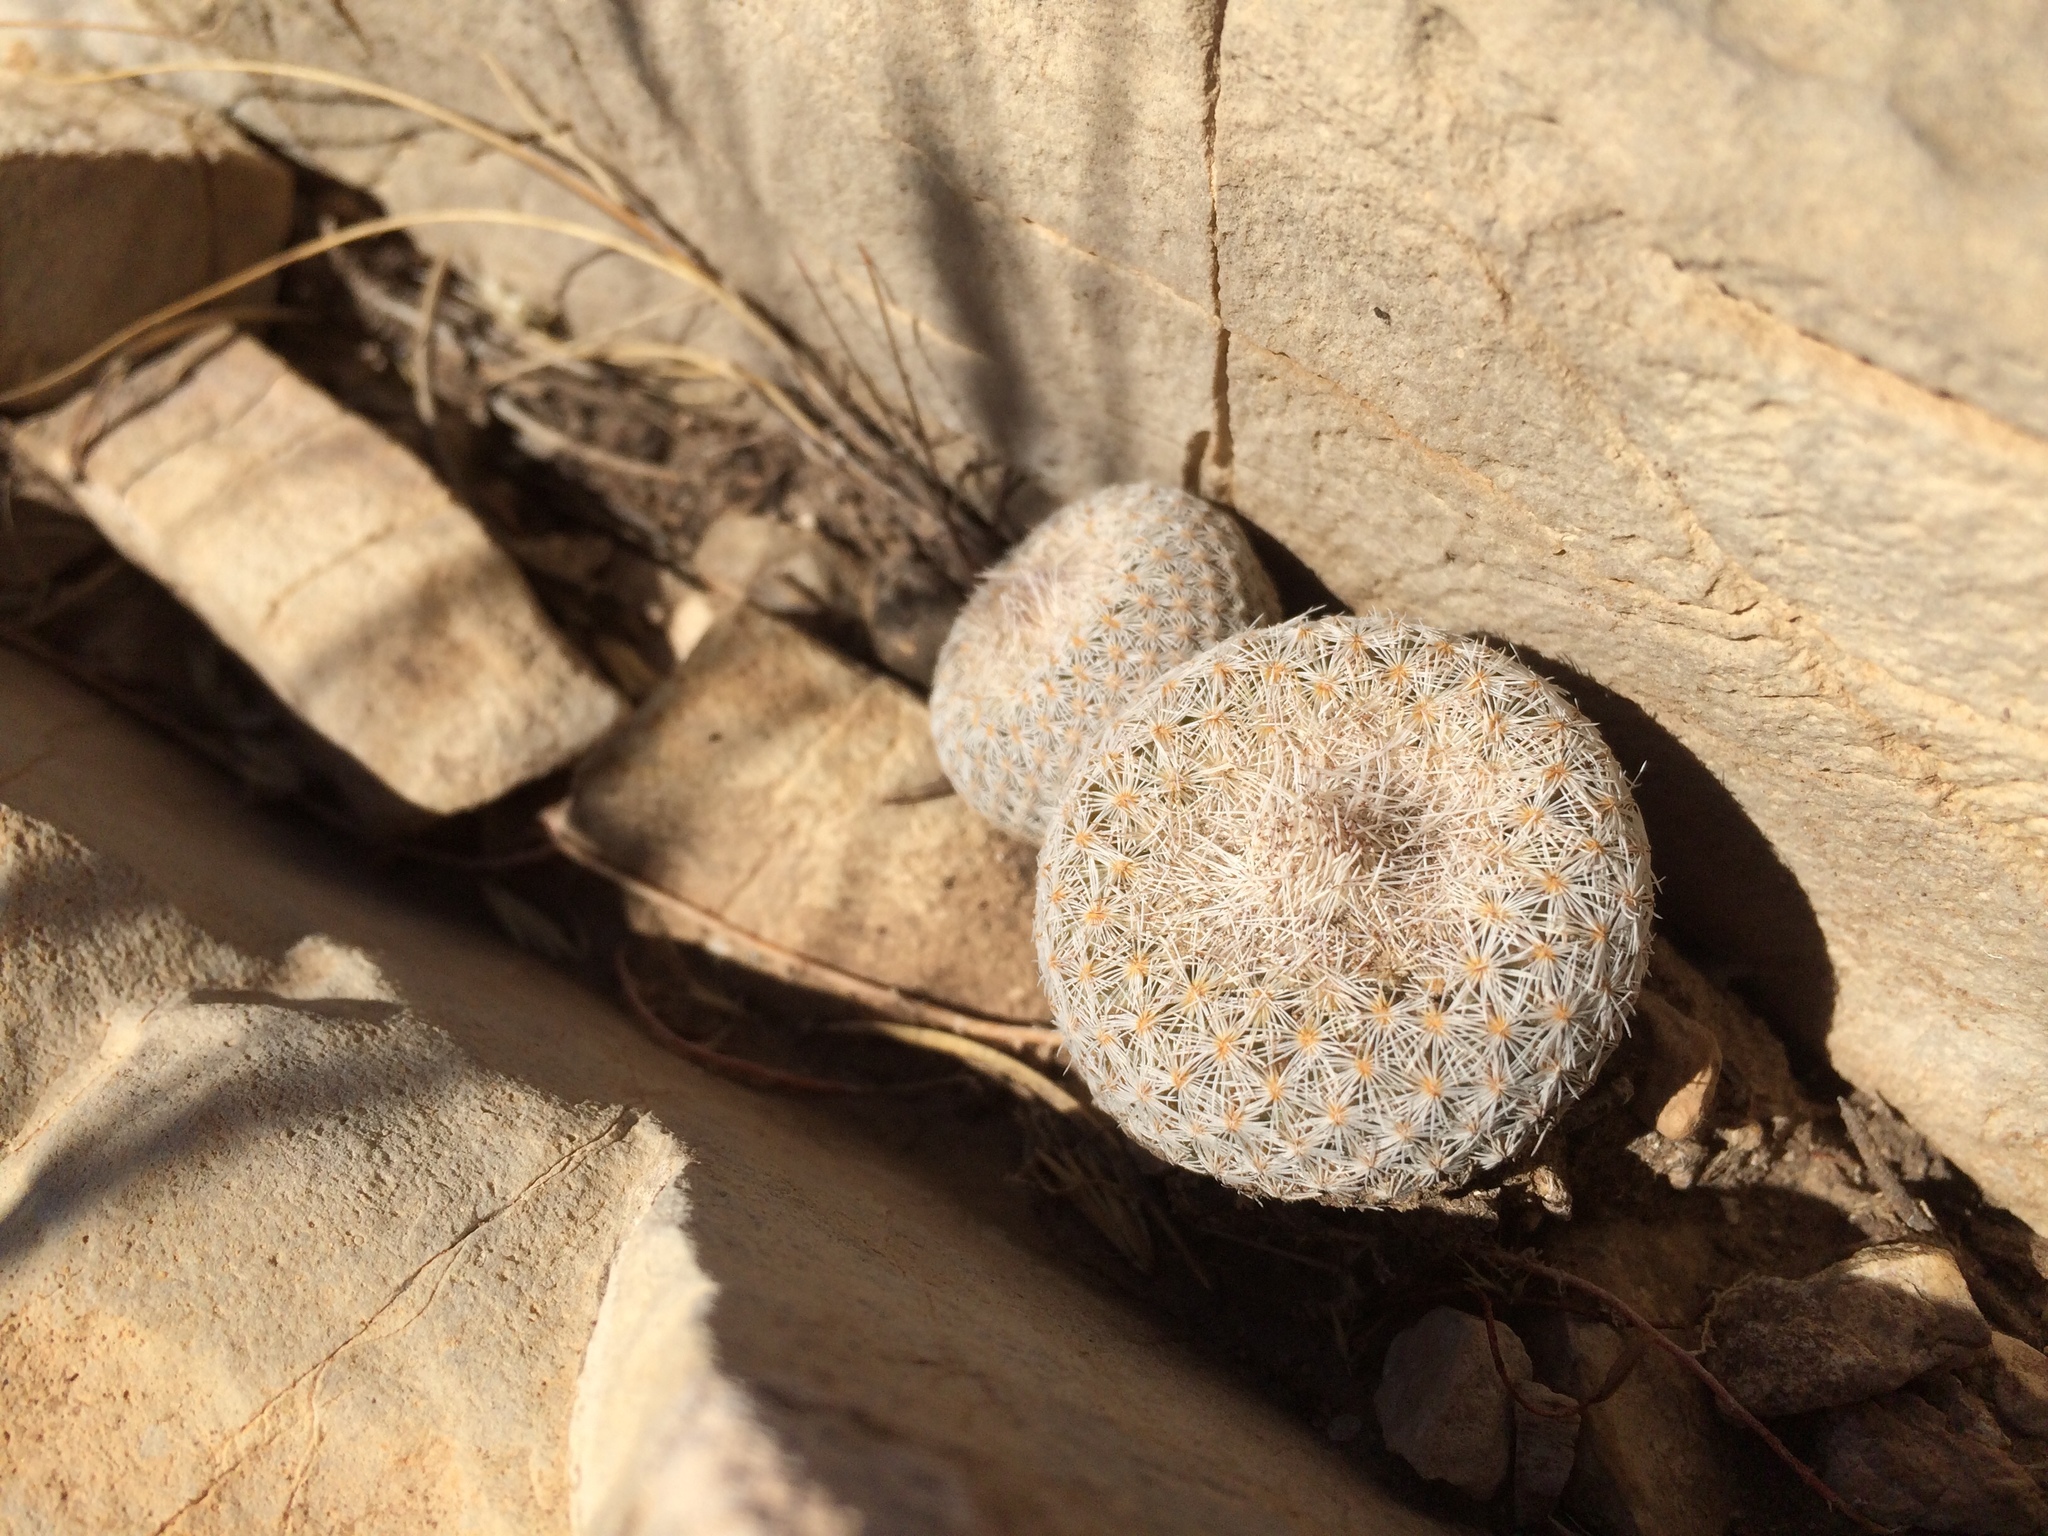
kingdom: Plantae
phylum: Tracheophyta
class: Magnoliopsida
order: Caryophyllales
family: Cactaceae
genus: Epithelantha
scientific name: Epithelantha micromeris
